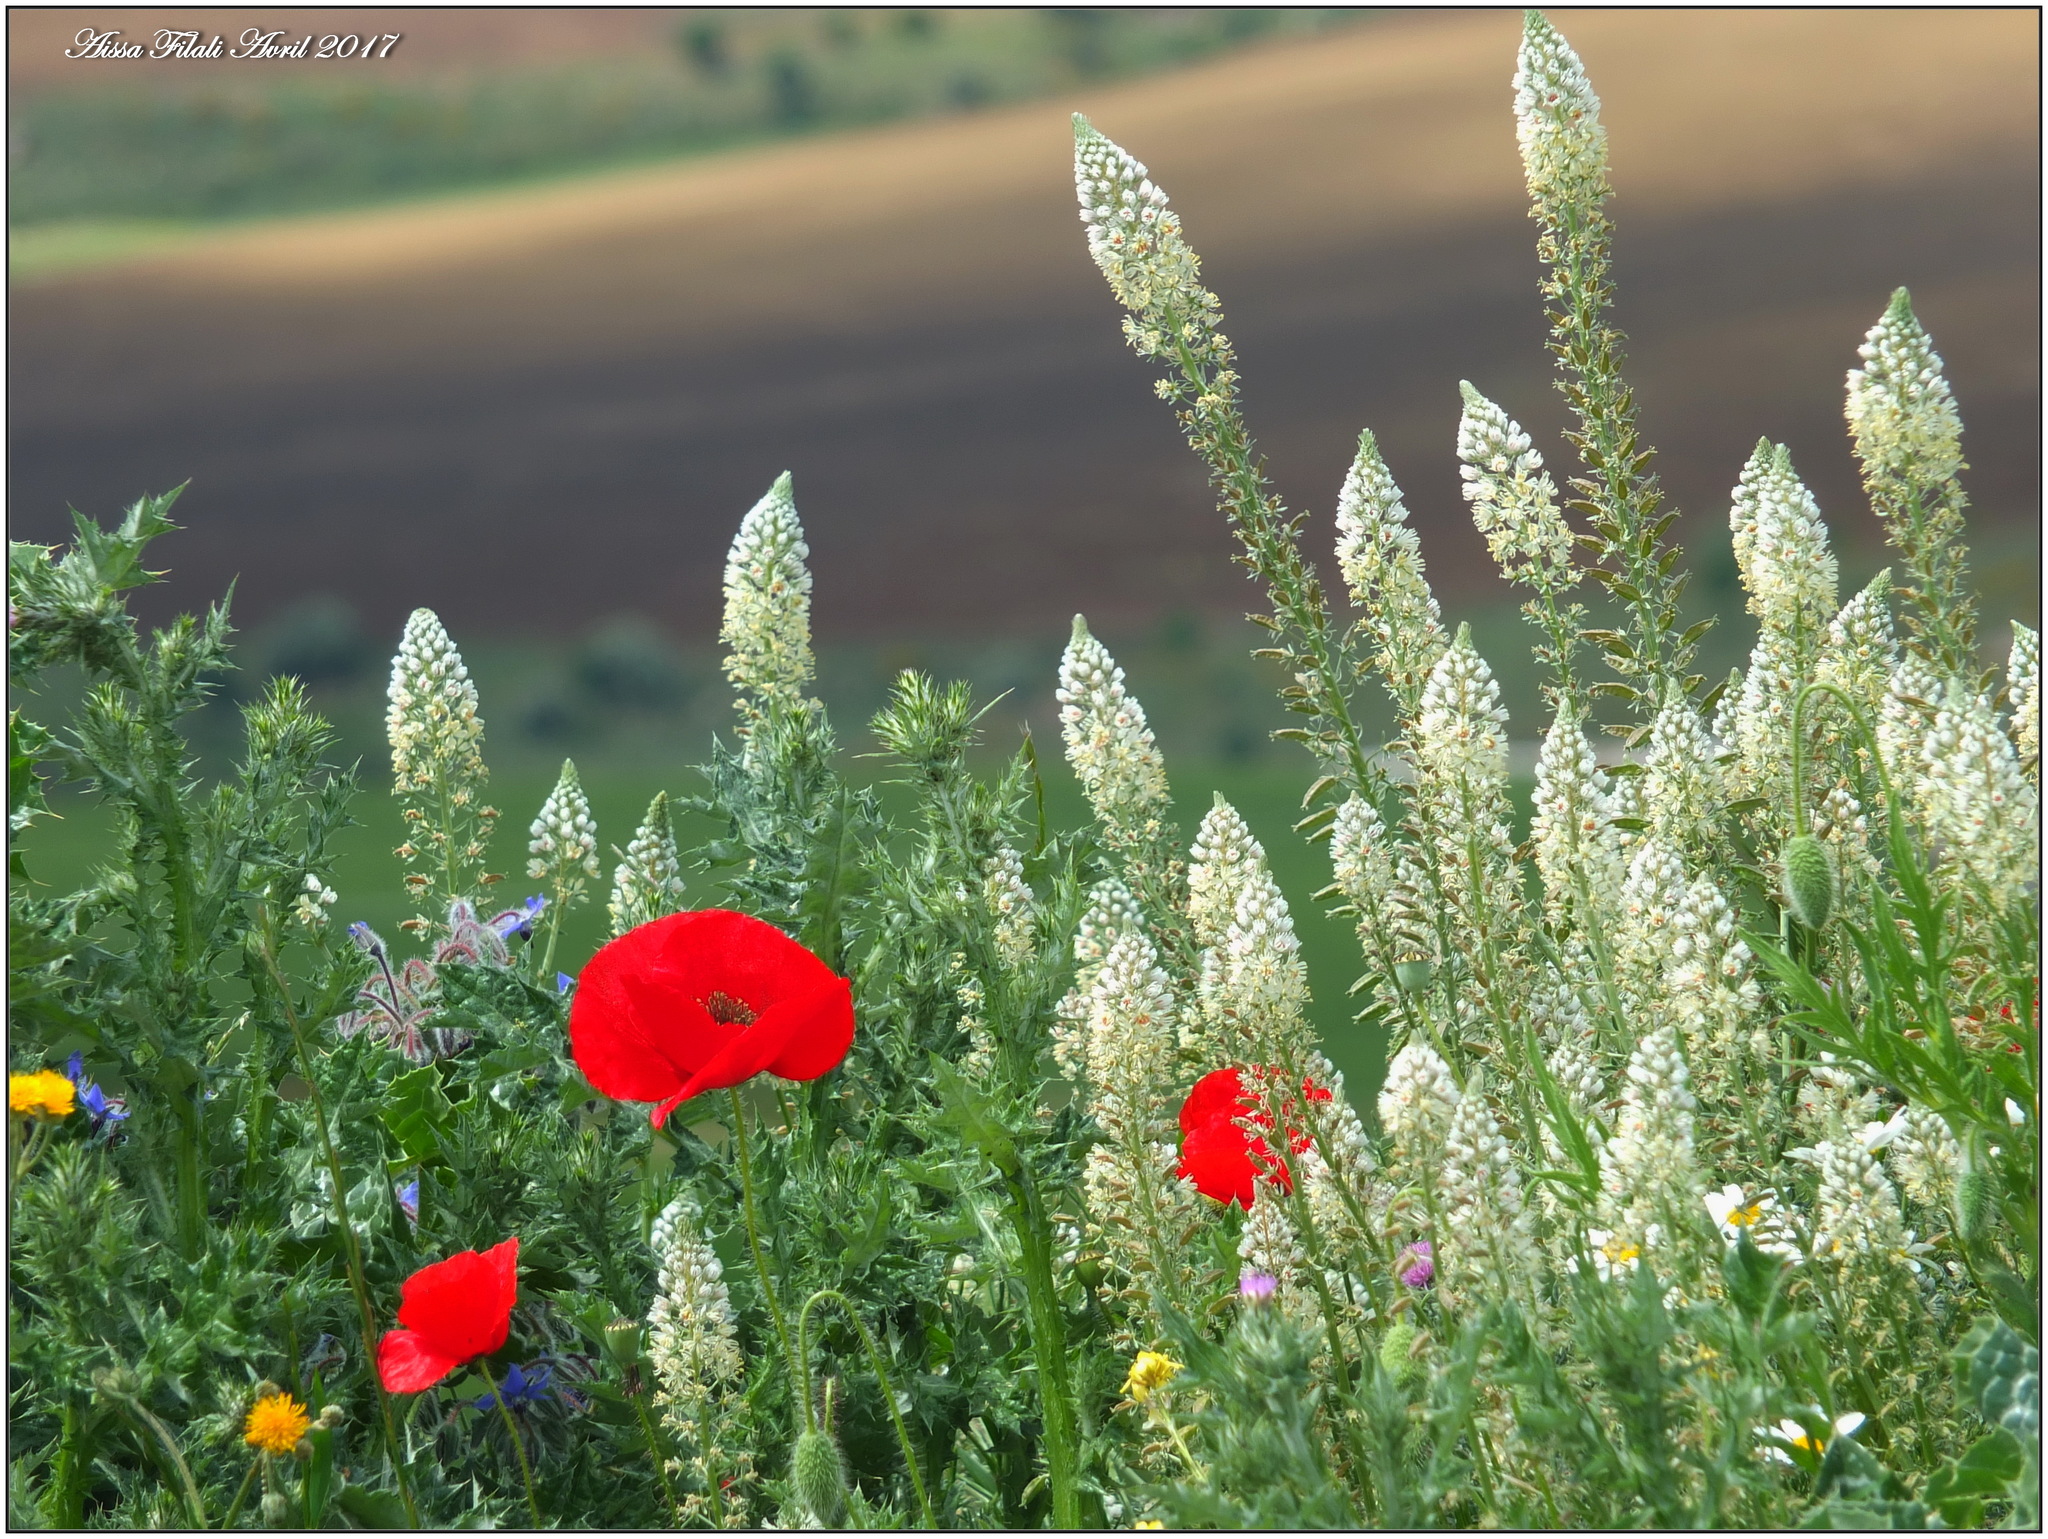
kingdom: Plantae
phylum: Tracheophyta
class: Magnoliopsida
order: Brassicales
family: Resedaceae
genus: Reseda
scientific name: Reseda alba
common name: White mignonette
